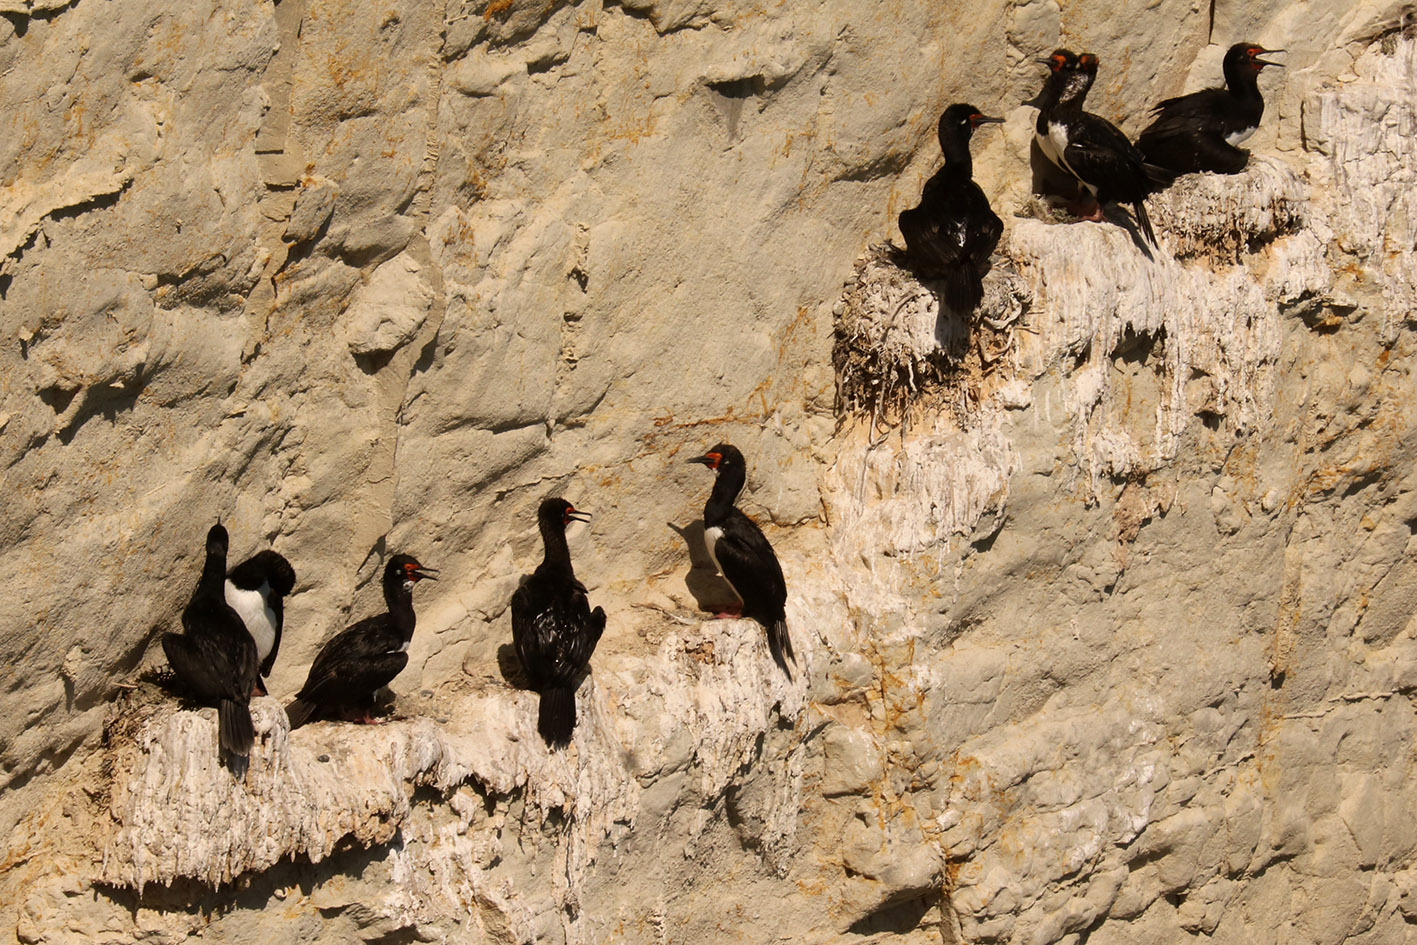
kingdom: Animalia
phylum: Chordata
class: Aves
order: Suliformes
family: Phalacrocoracidae
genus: Phalacrocorax
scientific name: Phalacrocorax magellanicus
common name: Rock shag
